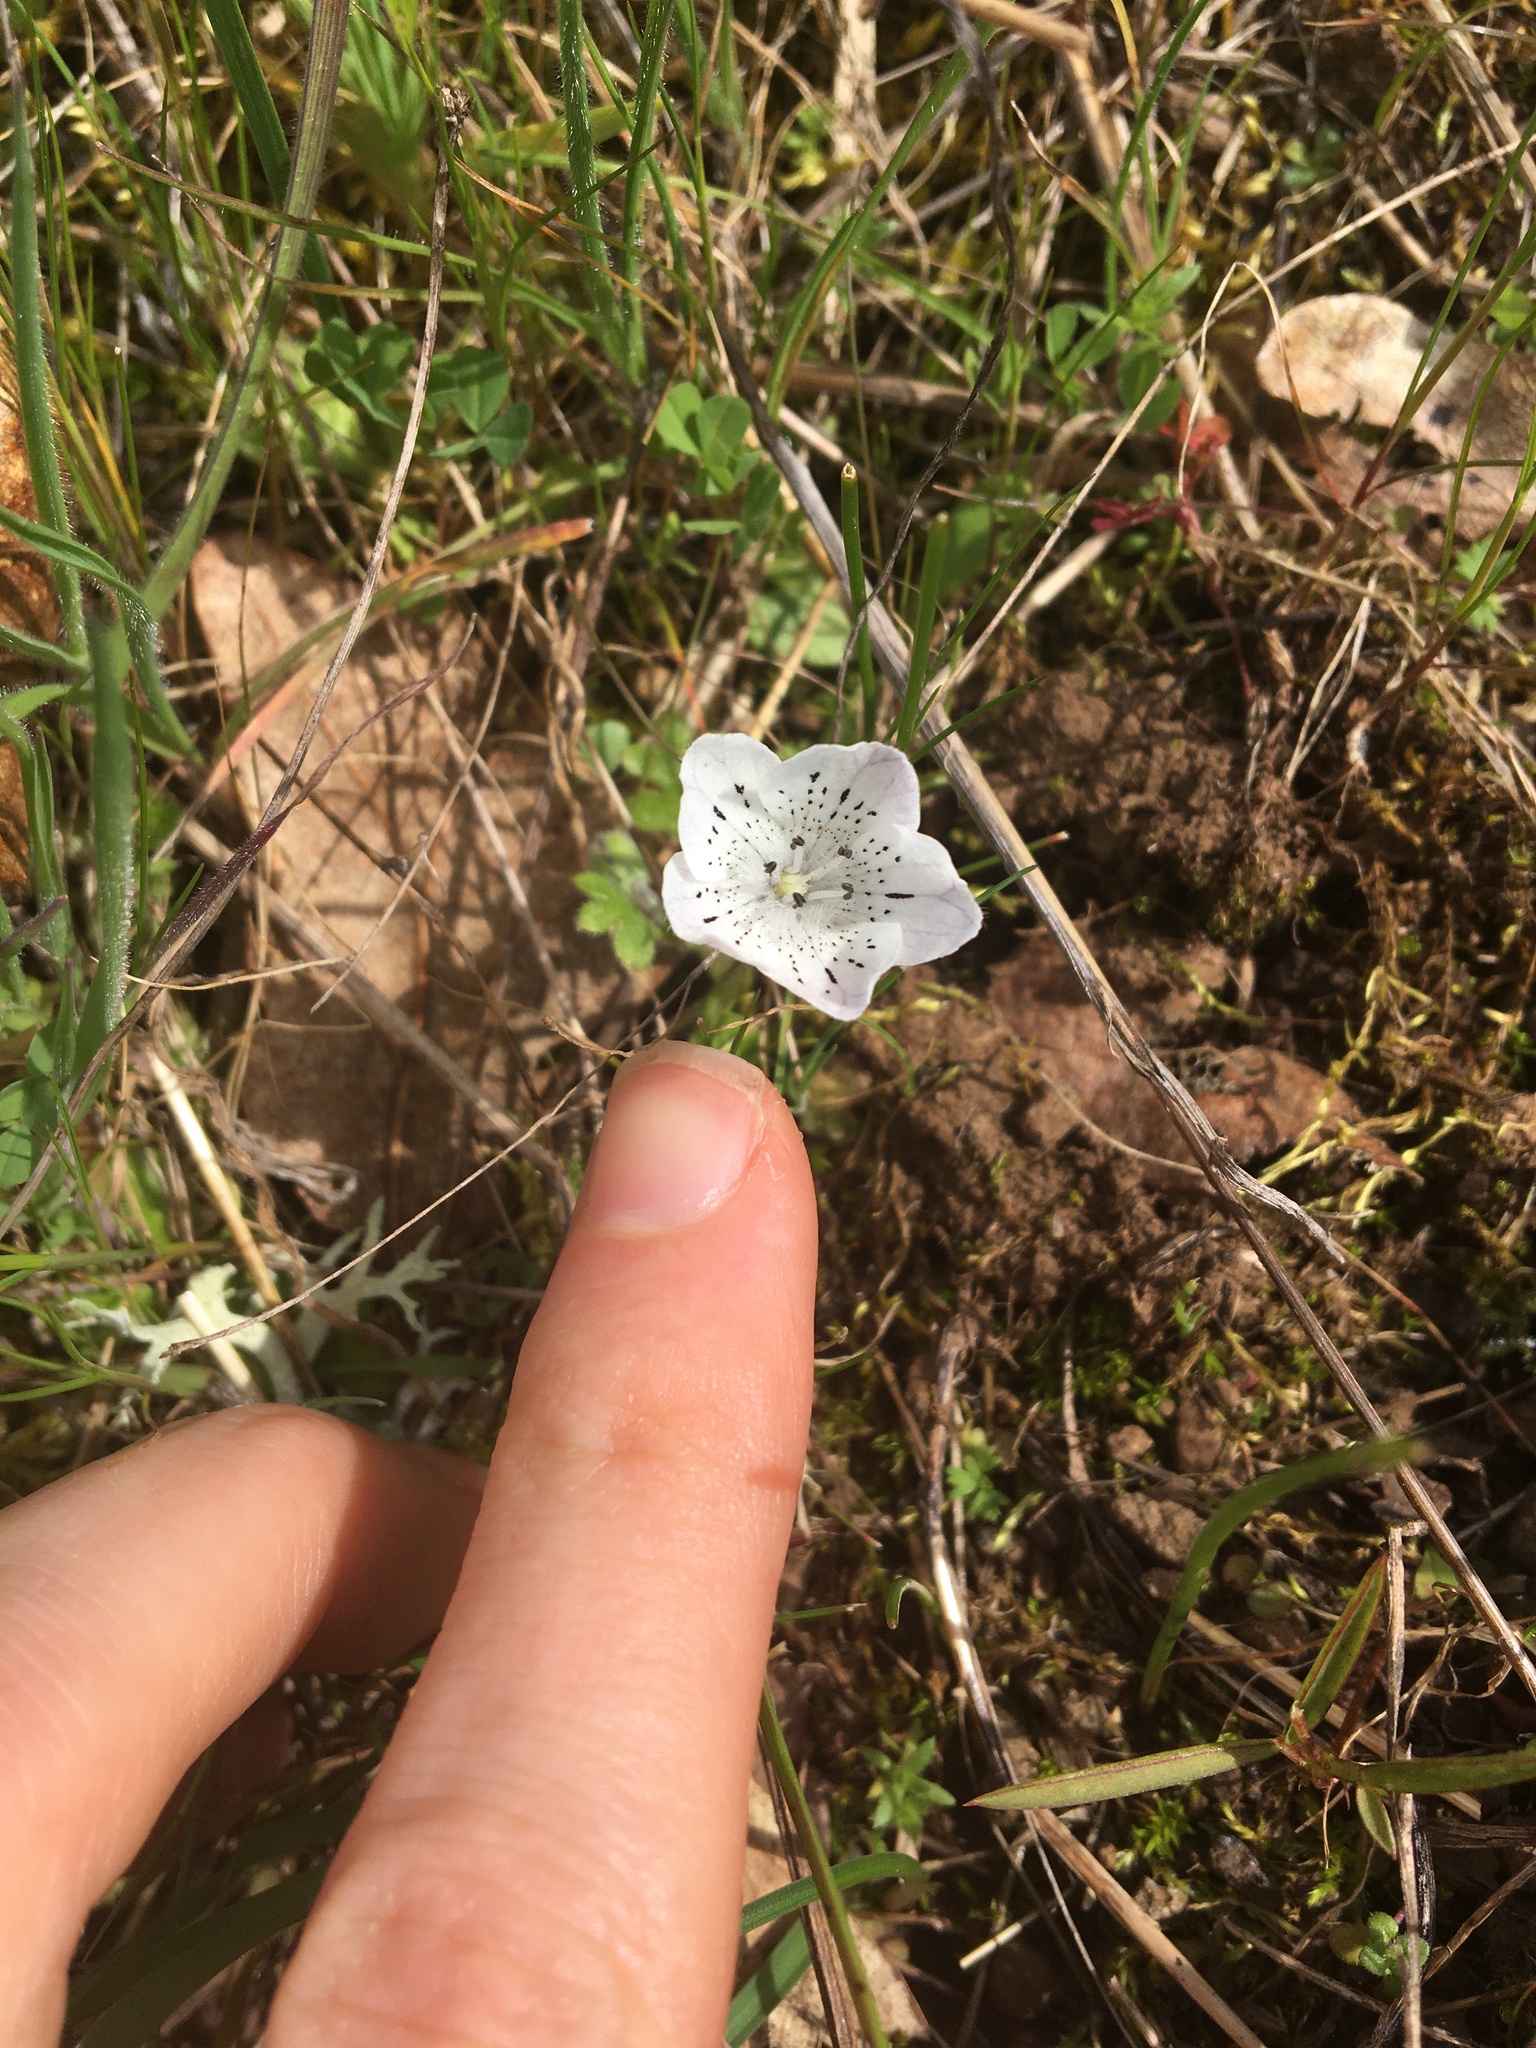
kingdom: Plantae
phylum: Tracheophyta
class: Magnoliopsida
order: Boraginales
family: Hydrophyllaceae
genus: Nemophila
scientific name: Nemophila menziesii
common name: Baby's-blue-eyes
